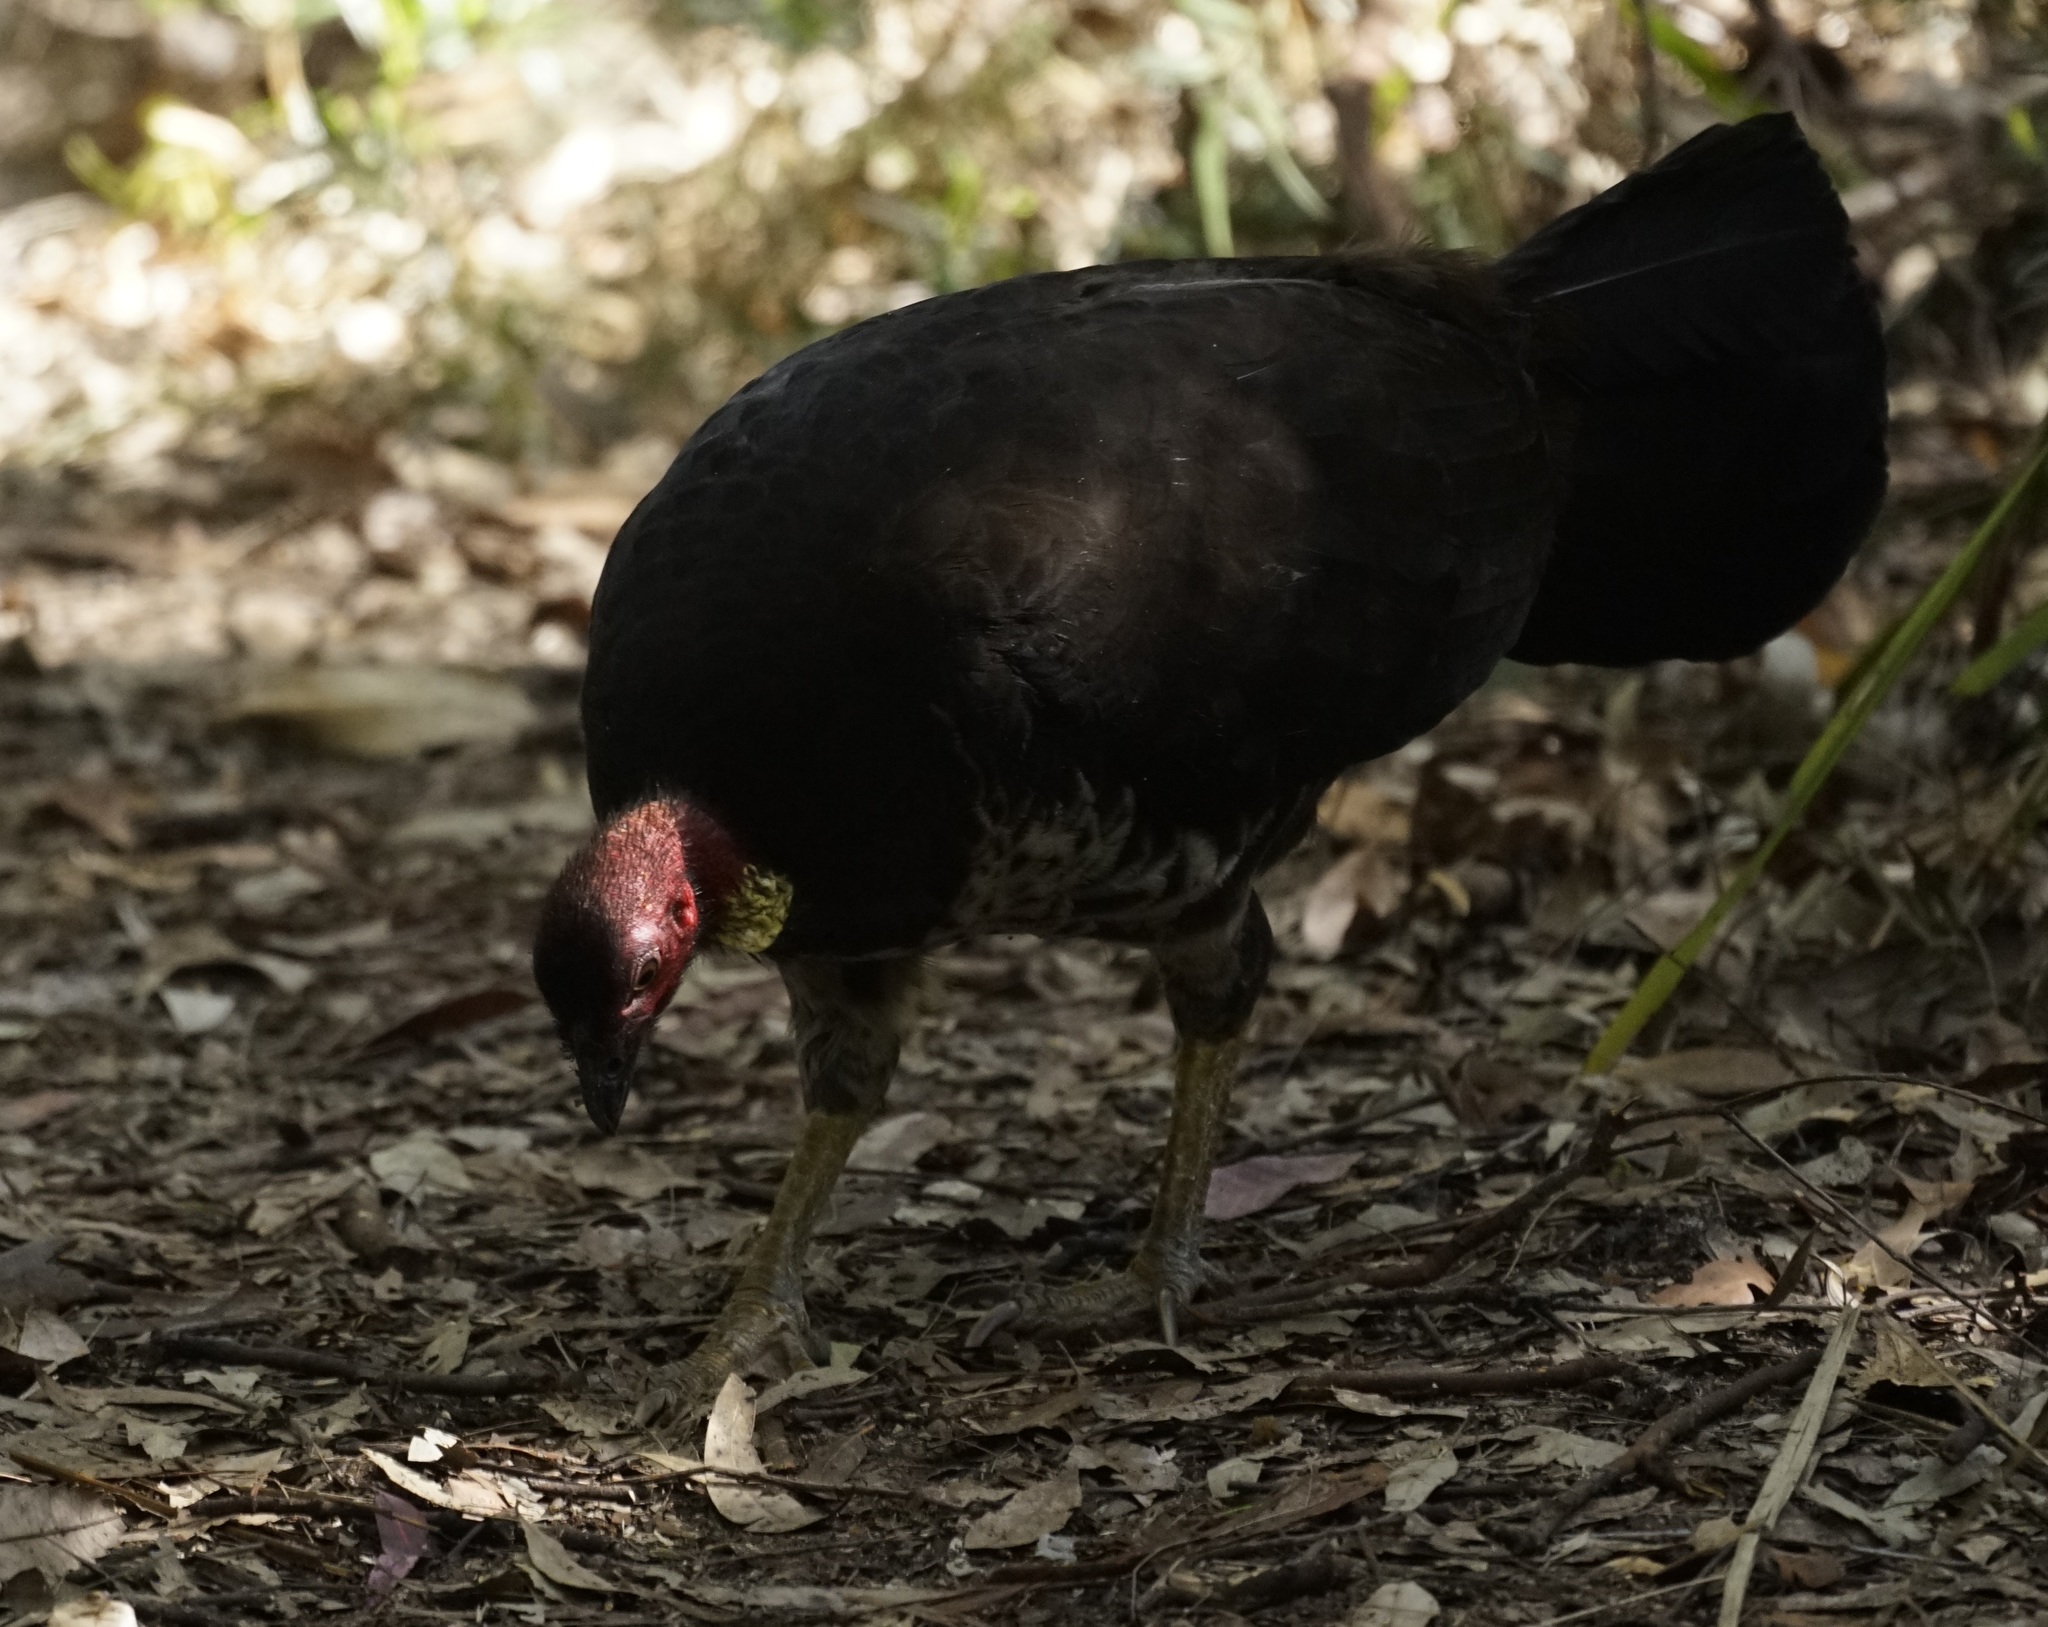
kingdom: Animalia
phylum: Chordata
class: Aves
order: Galliformes
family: Megapodiidae
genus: Alectura
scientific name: Alectura lathami
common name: Australian brushturkey
